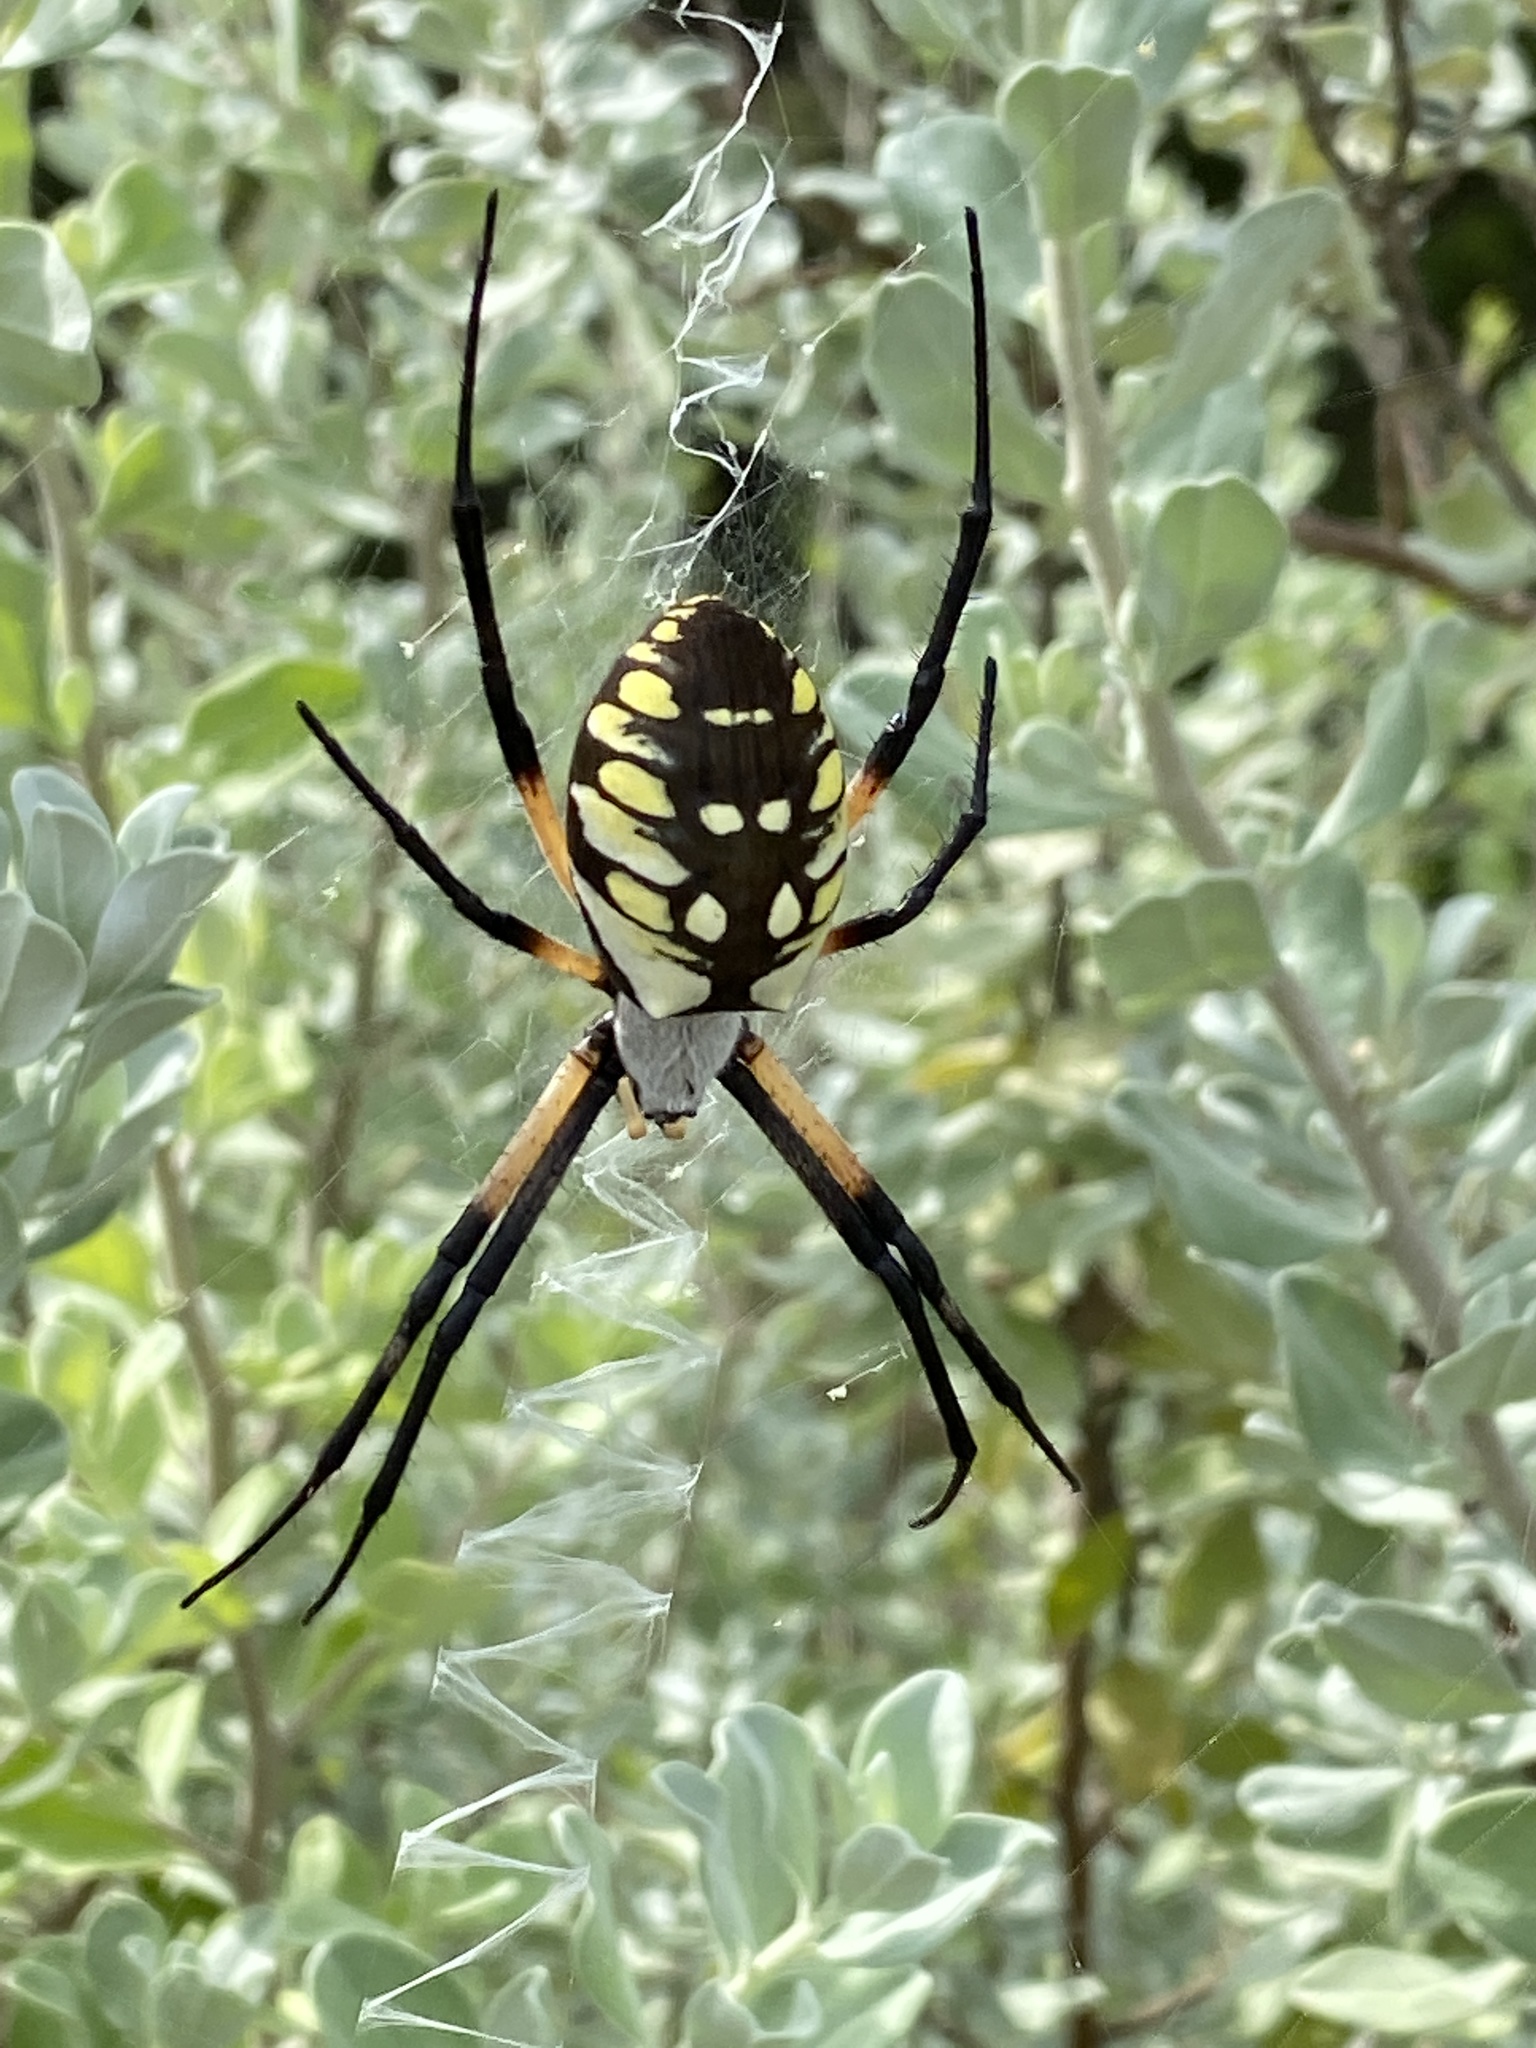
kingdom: Animalia
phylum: Arthropoda
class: Arachnida
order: Araneae
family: Araneidae
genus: Argiope
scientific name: Argiope aurantia
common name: Orb weavers
